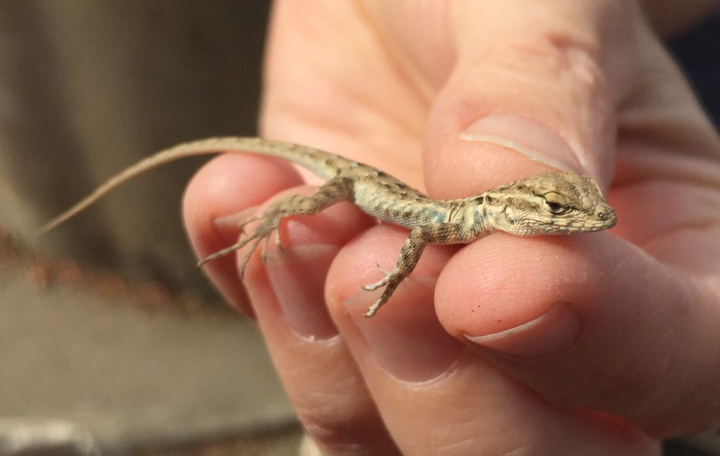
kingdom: Animalia
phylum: Chordata
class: Squamata
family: Phrynosomatidae
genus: Uta
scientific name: Uta stansburiana
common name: Side-blotched lizard
